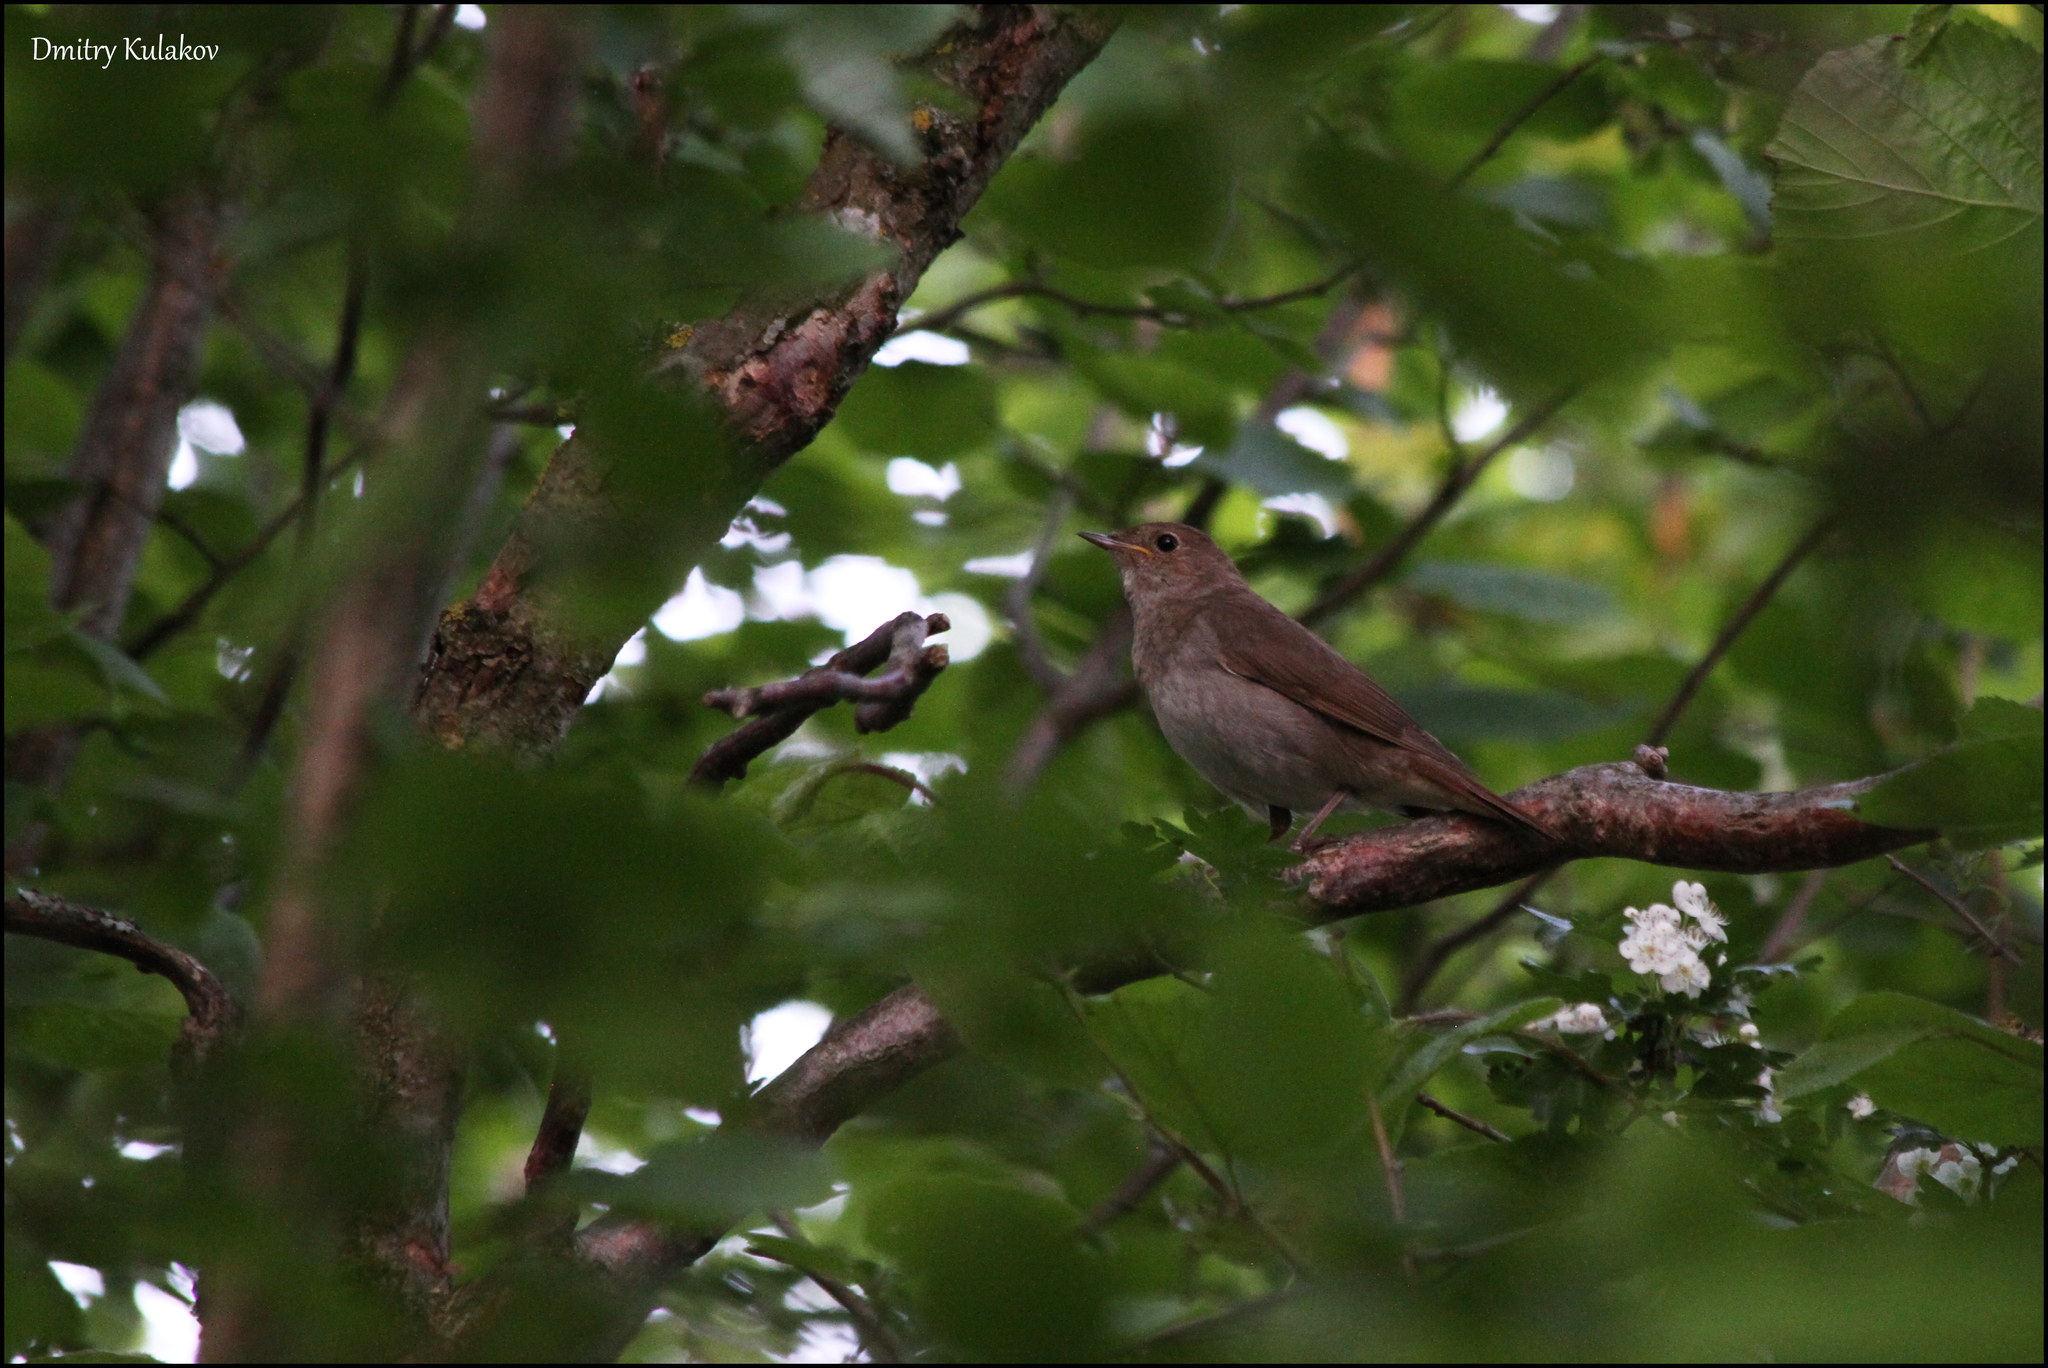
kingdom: Animalia
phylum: Chordata
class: Aves
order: Passeriformes
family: Muscicapidae
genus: Luscinia
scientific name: Luscinia luscinia
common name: Thrush nightingale
